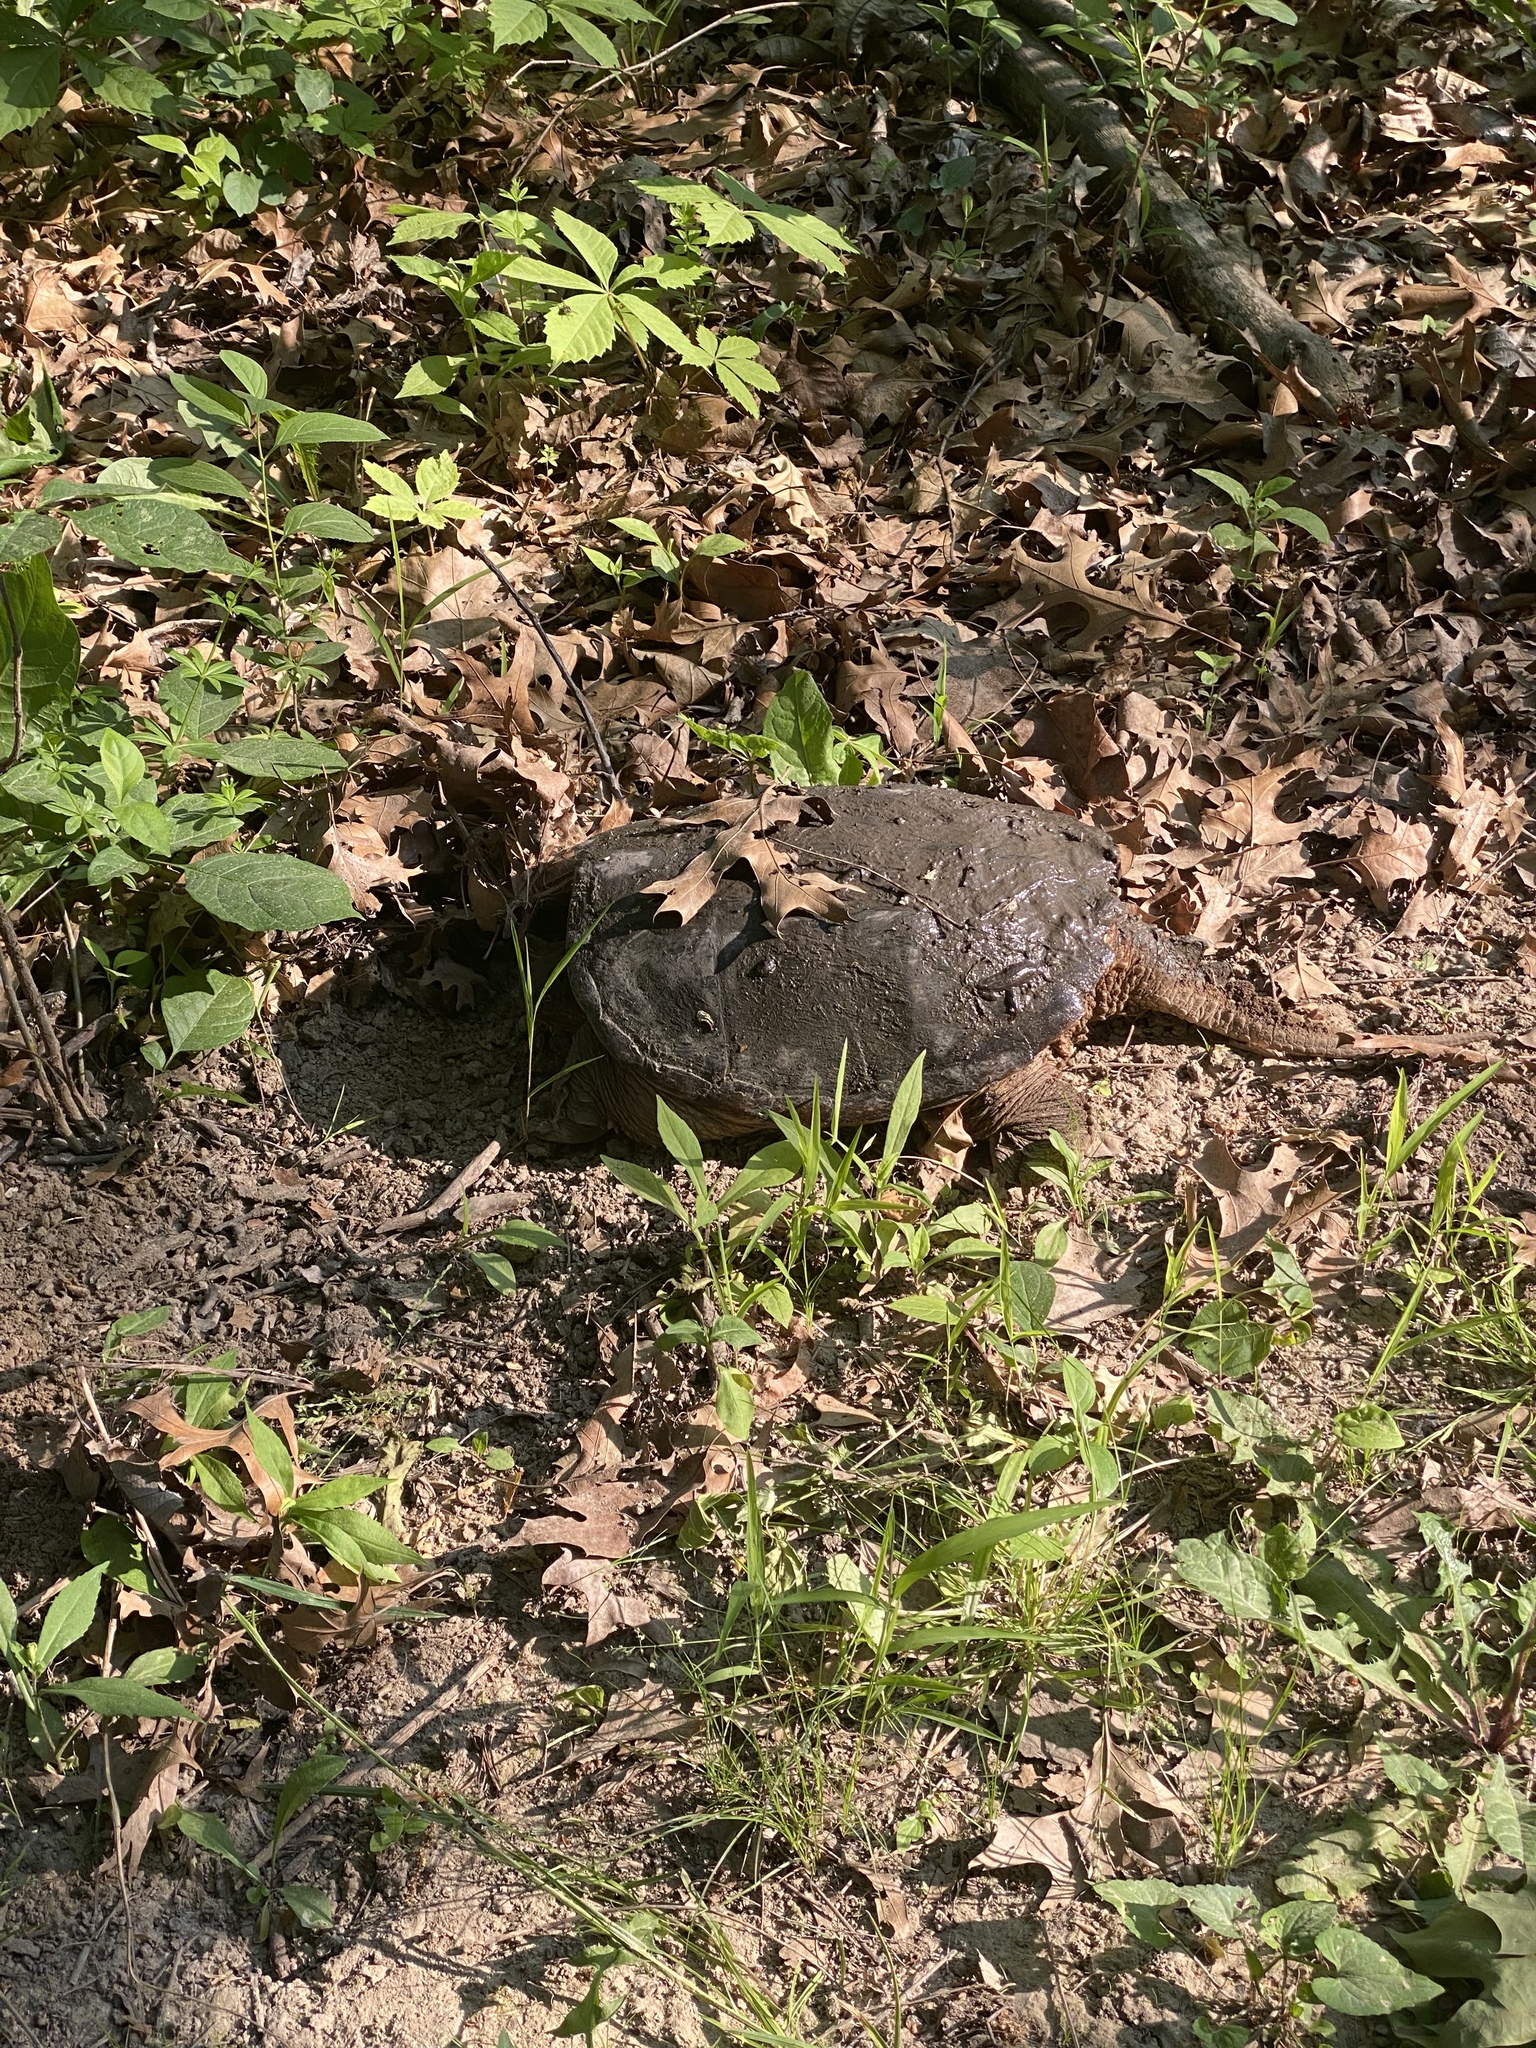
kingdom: Animalia
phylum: Chordata
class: Testudines
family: Chelydridae
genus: Chelydra
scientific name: Chelydra serpentina
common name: Common snapping turtle
